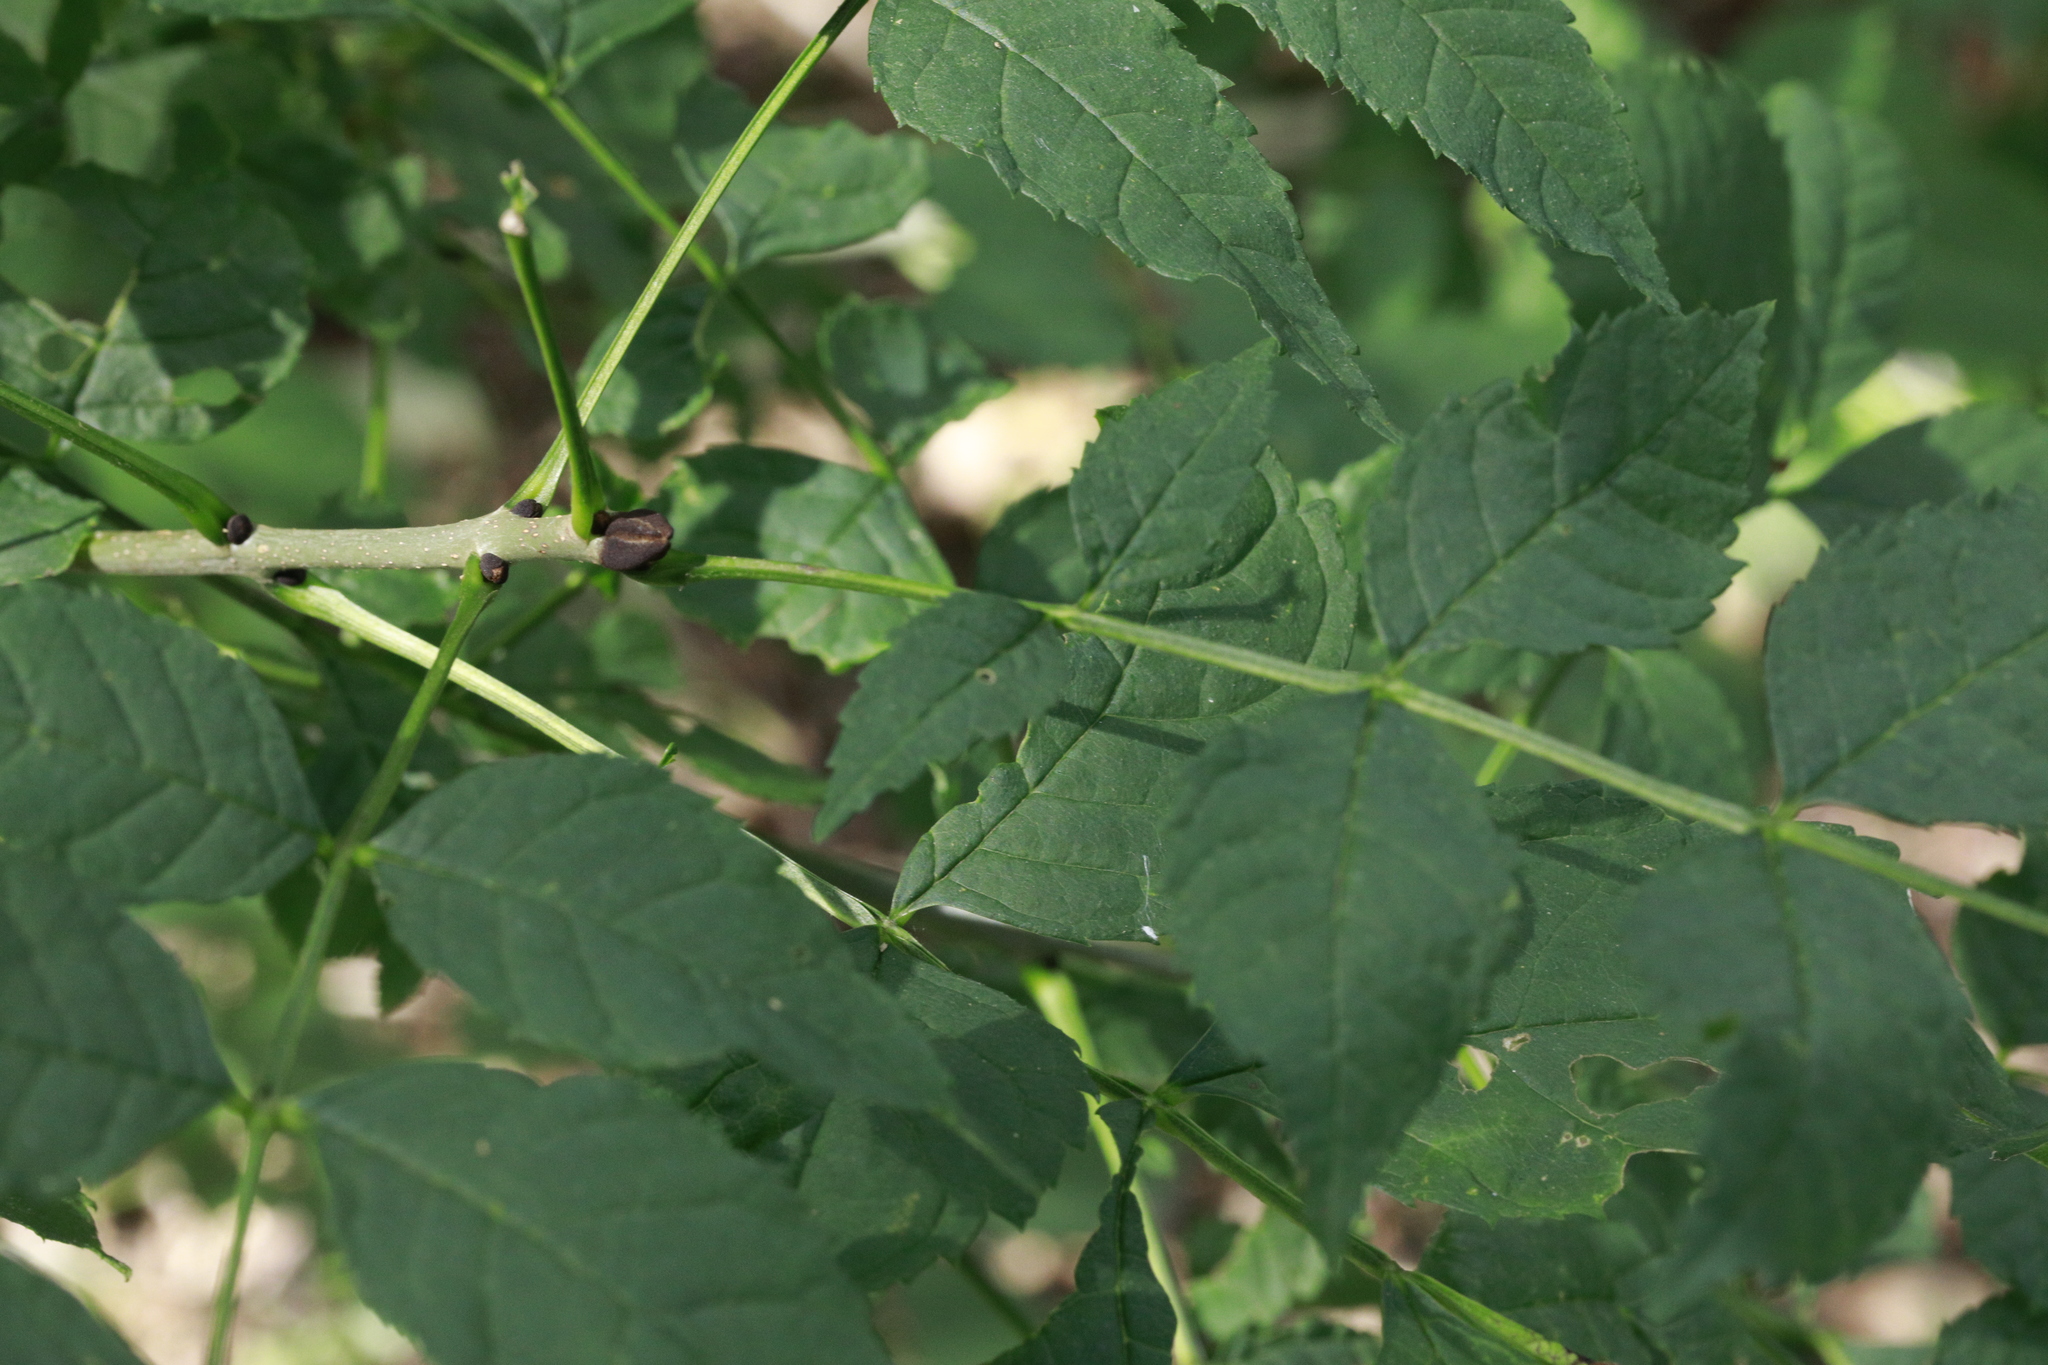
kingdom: Plantae
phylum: Tracheophyta
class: Magnoliopsida
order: Lamiales
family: Oleaceae
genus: Fraxinus
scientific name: Fraxinus excelsior
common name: European ash
